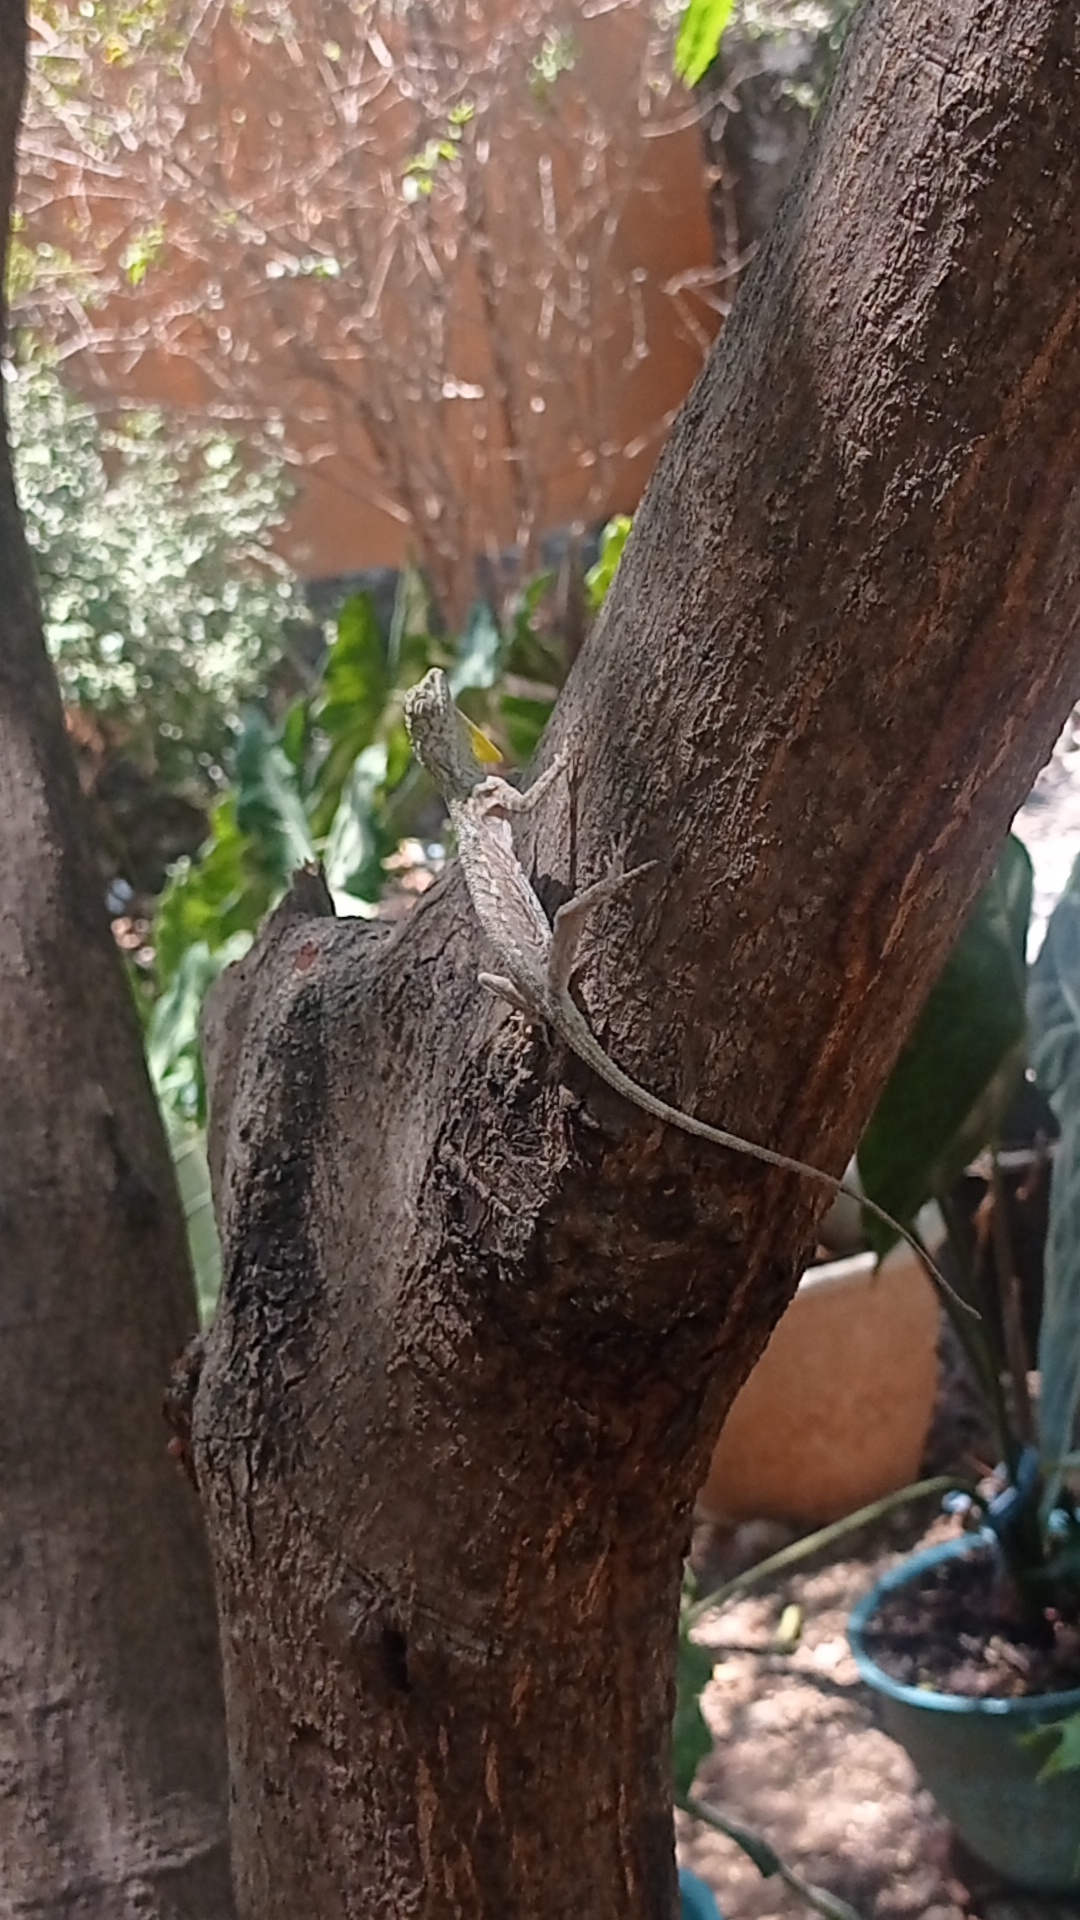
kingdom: Animalia
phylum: Chordata
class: Squamata
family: Agamidae
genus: Draco
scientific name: Draco timoriensis
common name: Timor flying dragon
